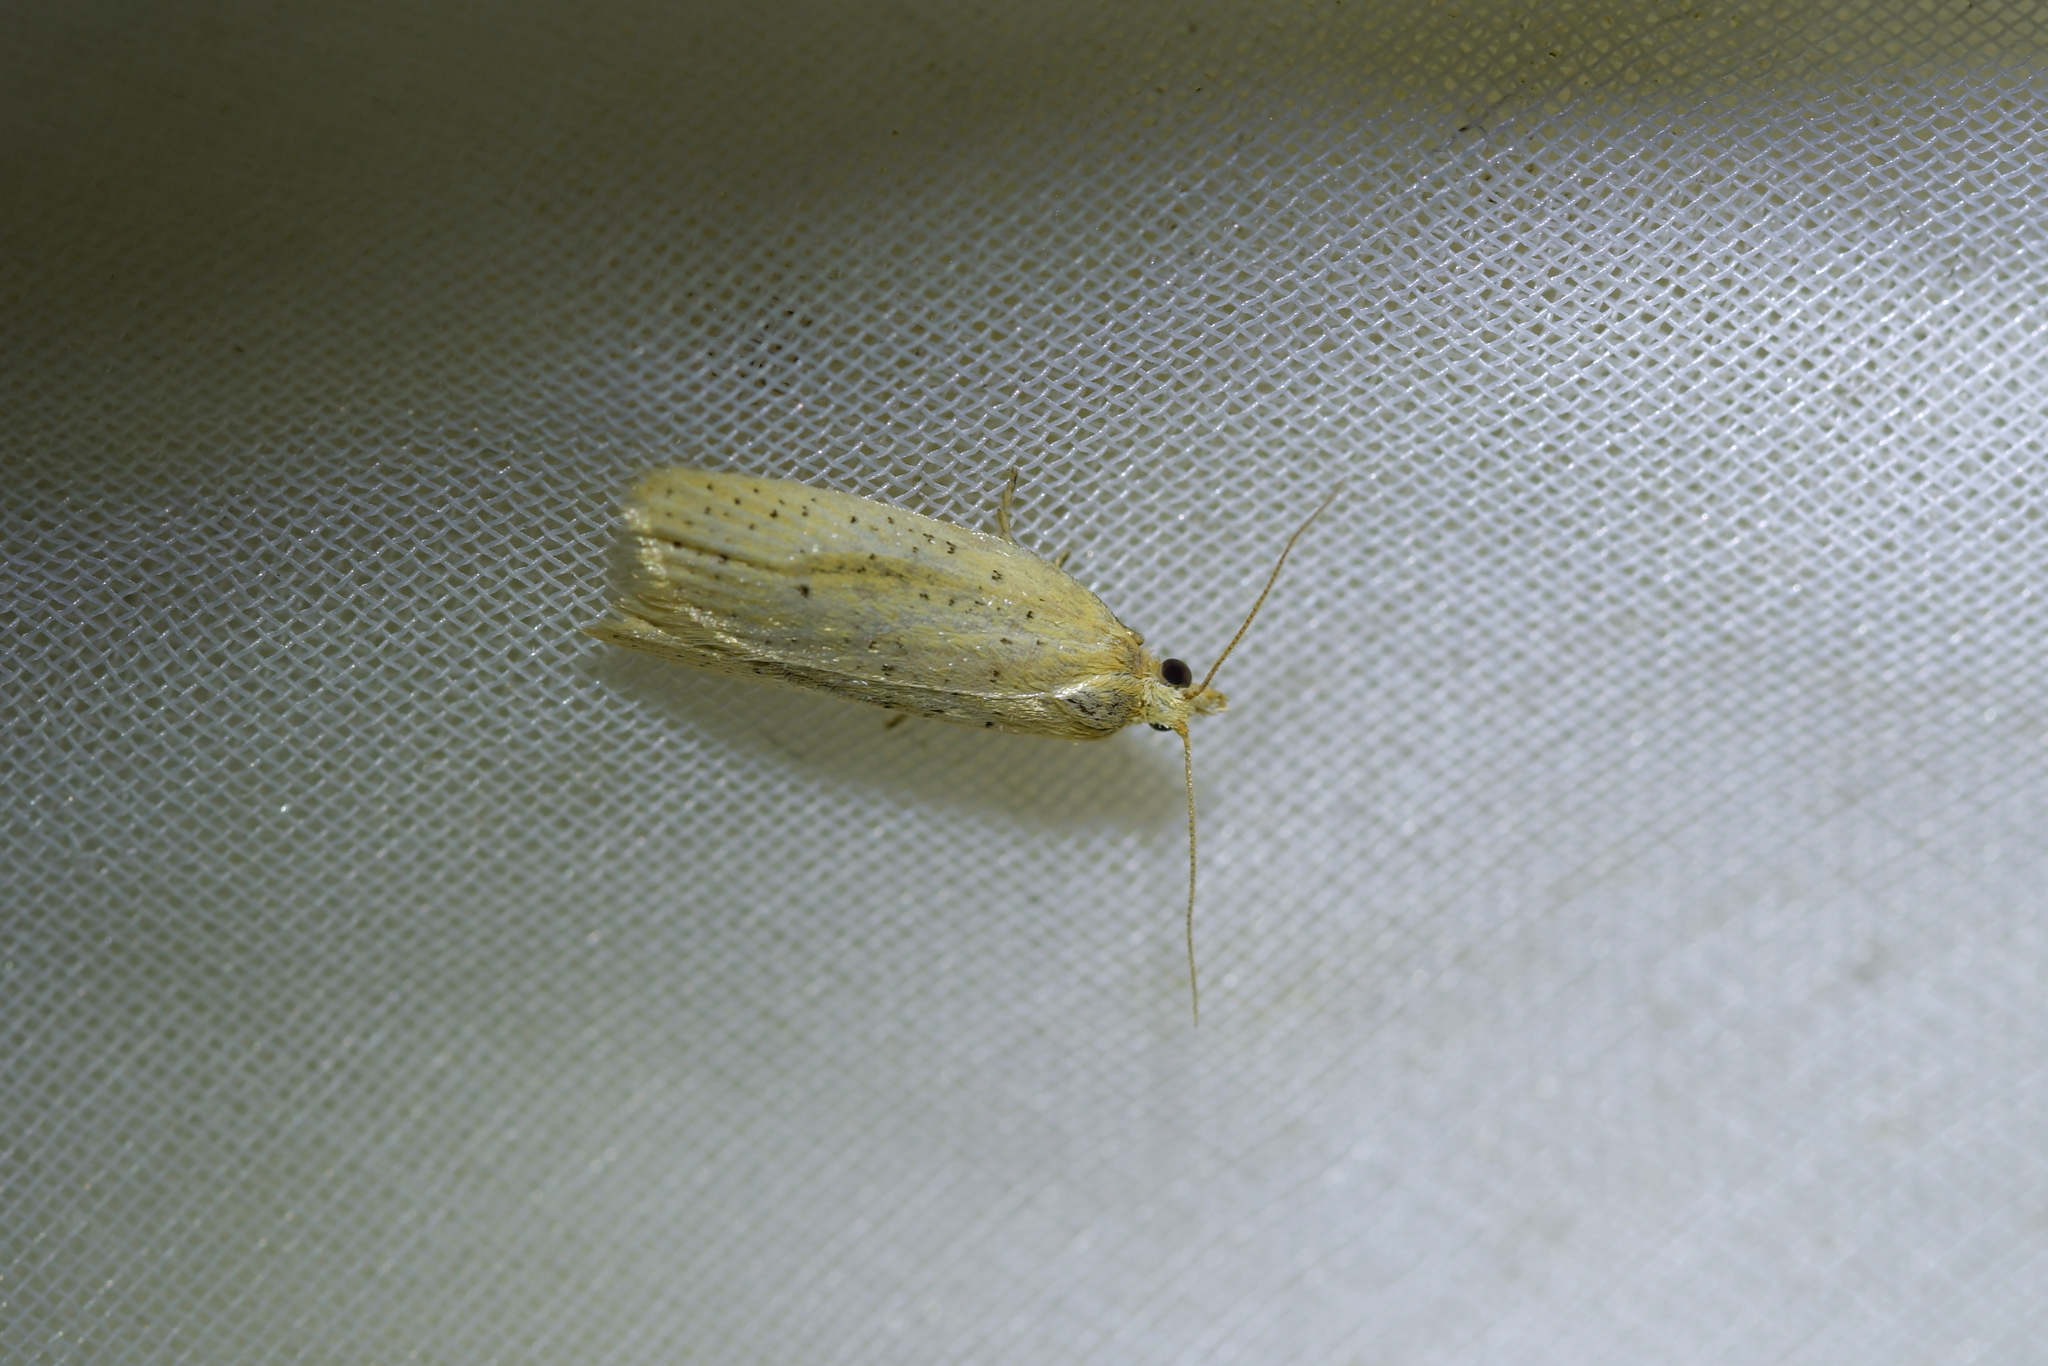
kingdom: Animalia
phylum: Arthropoda
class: Insecta
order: Lepidoptera
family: Tortricidae
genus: Clepsis
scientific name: Clepsis
